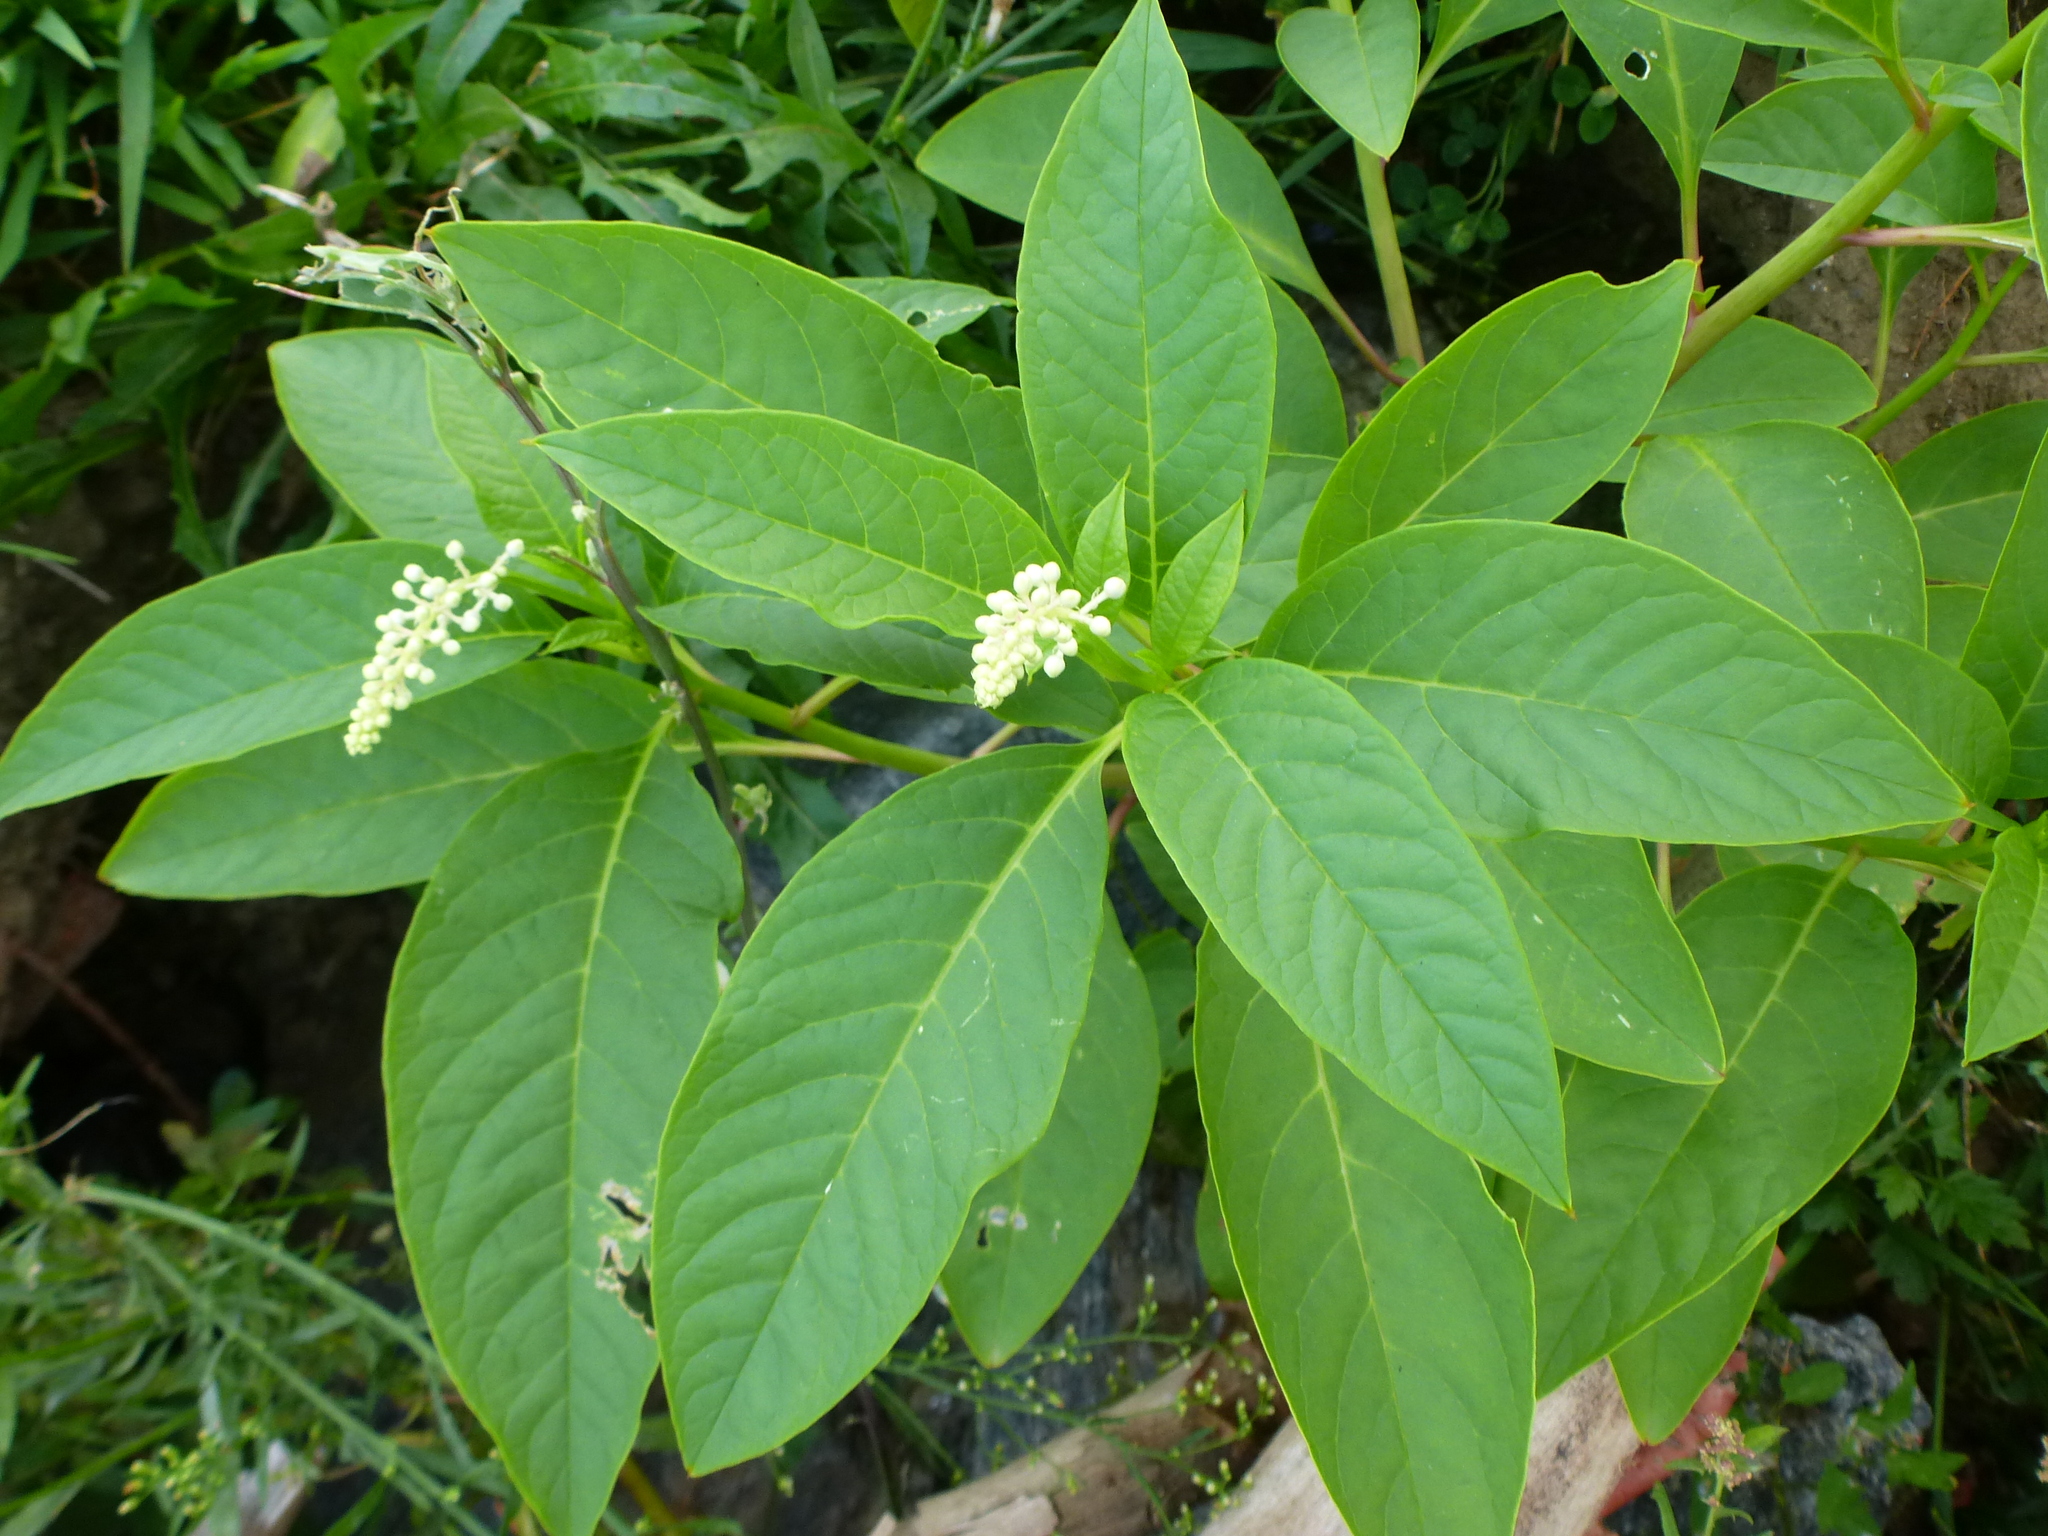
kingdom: Plantae
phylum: Tracheophyta
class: Magnoliopsida
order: Caryophyllales
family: Phytolaccaceae
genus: Phytolacca
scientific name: Phytolacca americana
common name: American pokeweed
